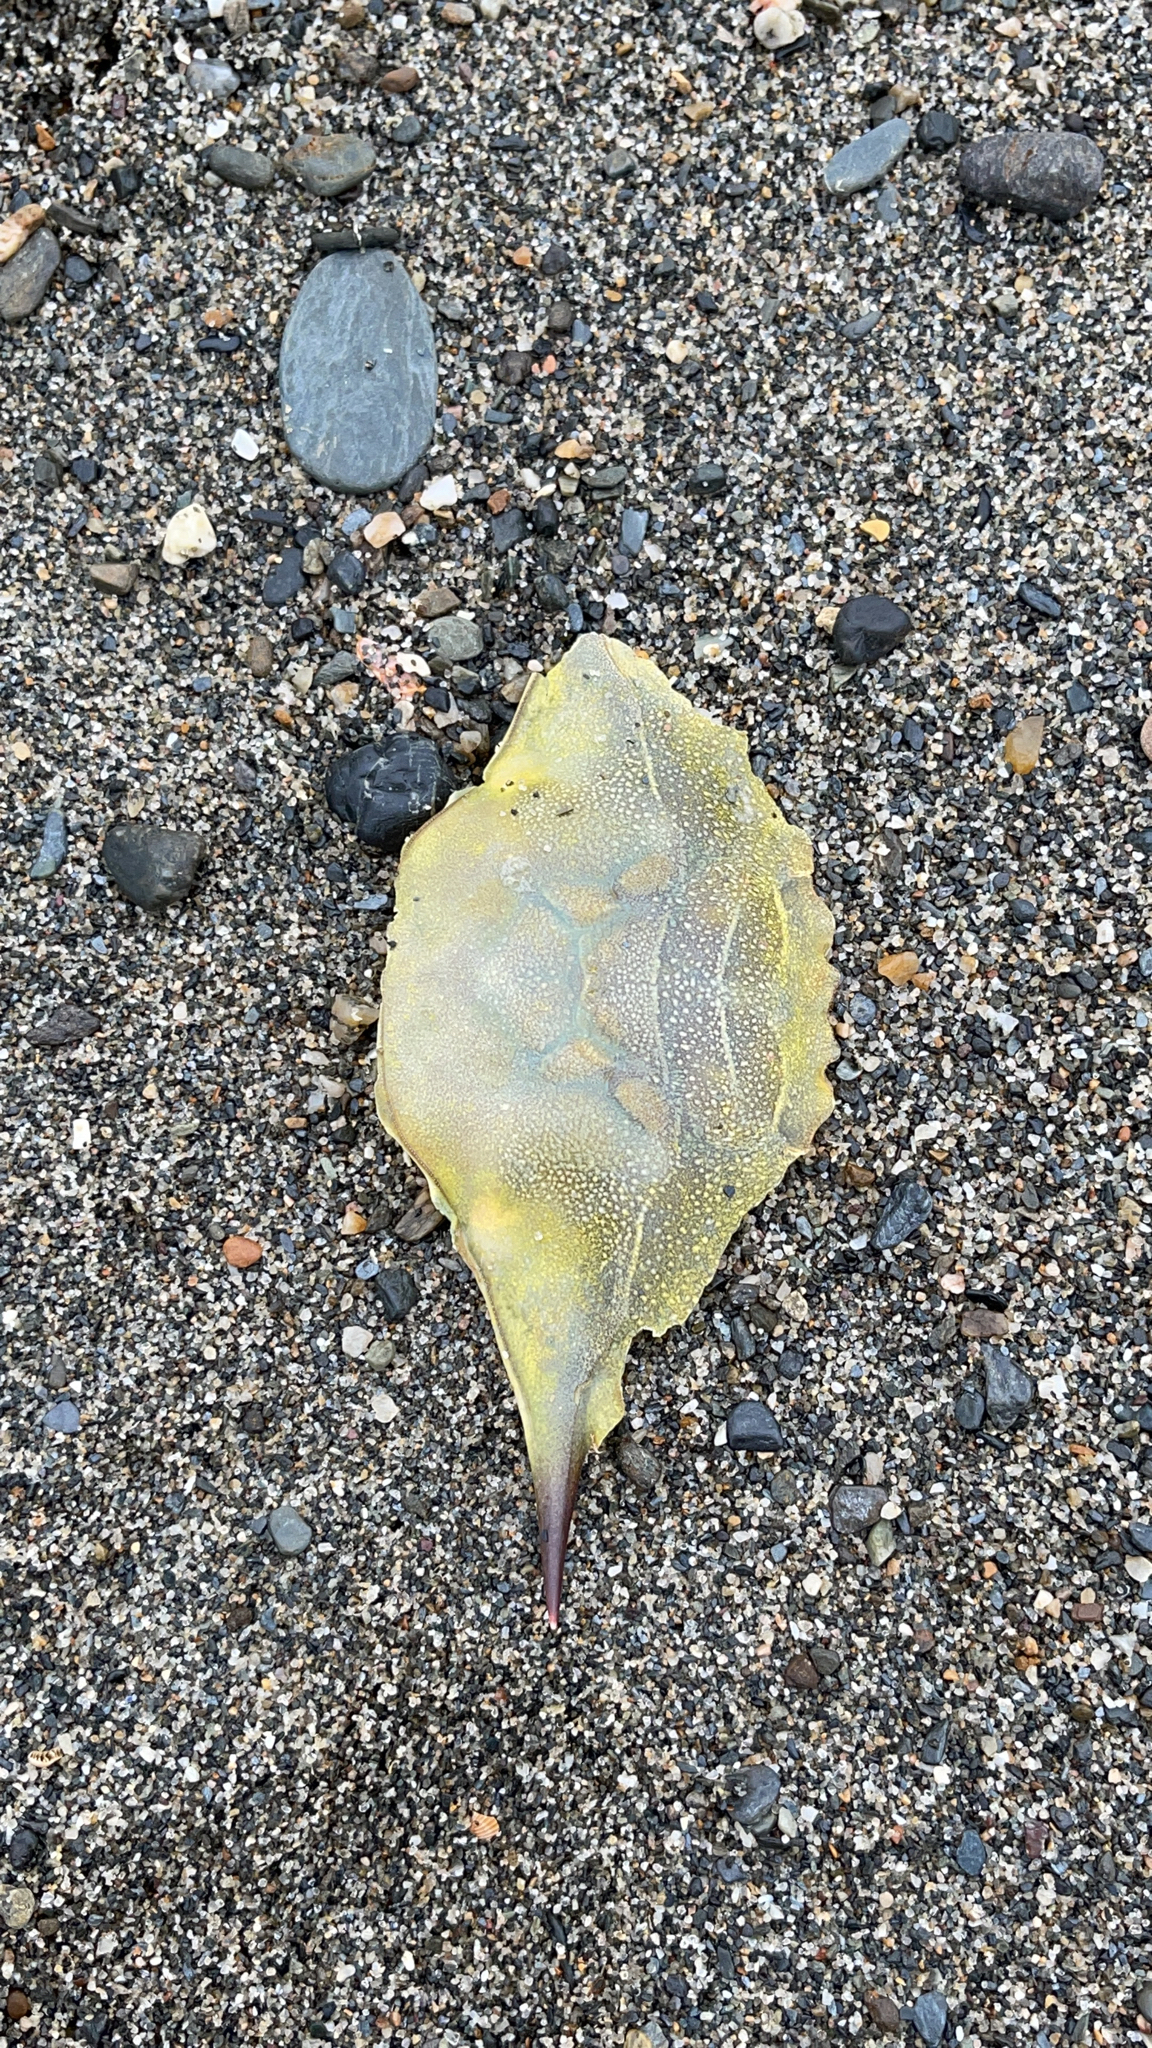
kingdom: Animalia
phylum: Arthropoda
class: Malacostraca
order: Decapoda
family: Portunidae
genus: Callinectes
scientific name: Callinectes sapidus
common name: Blue crab
